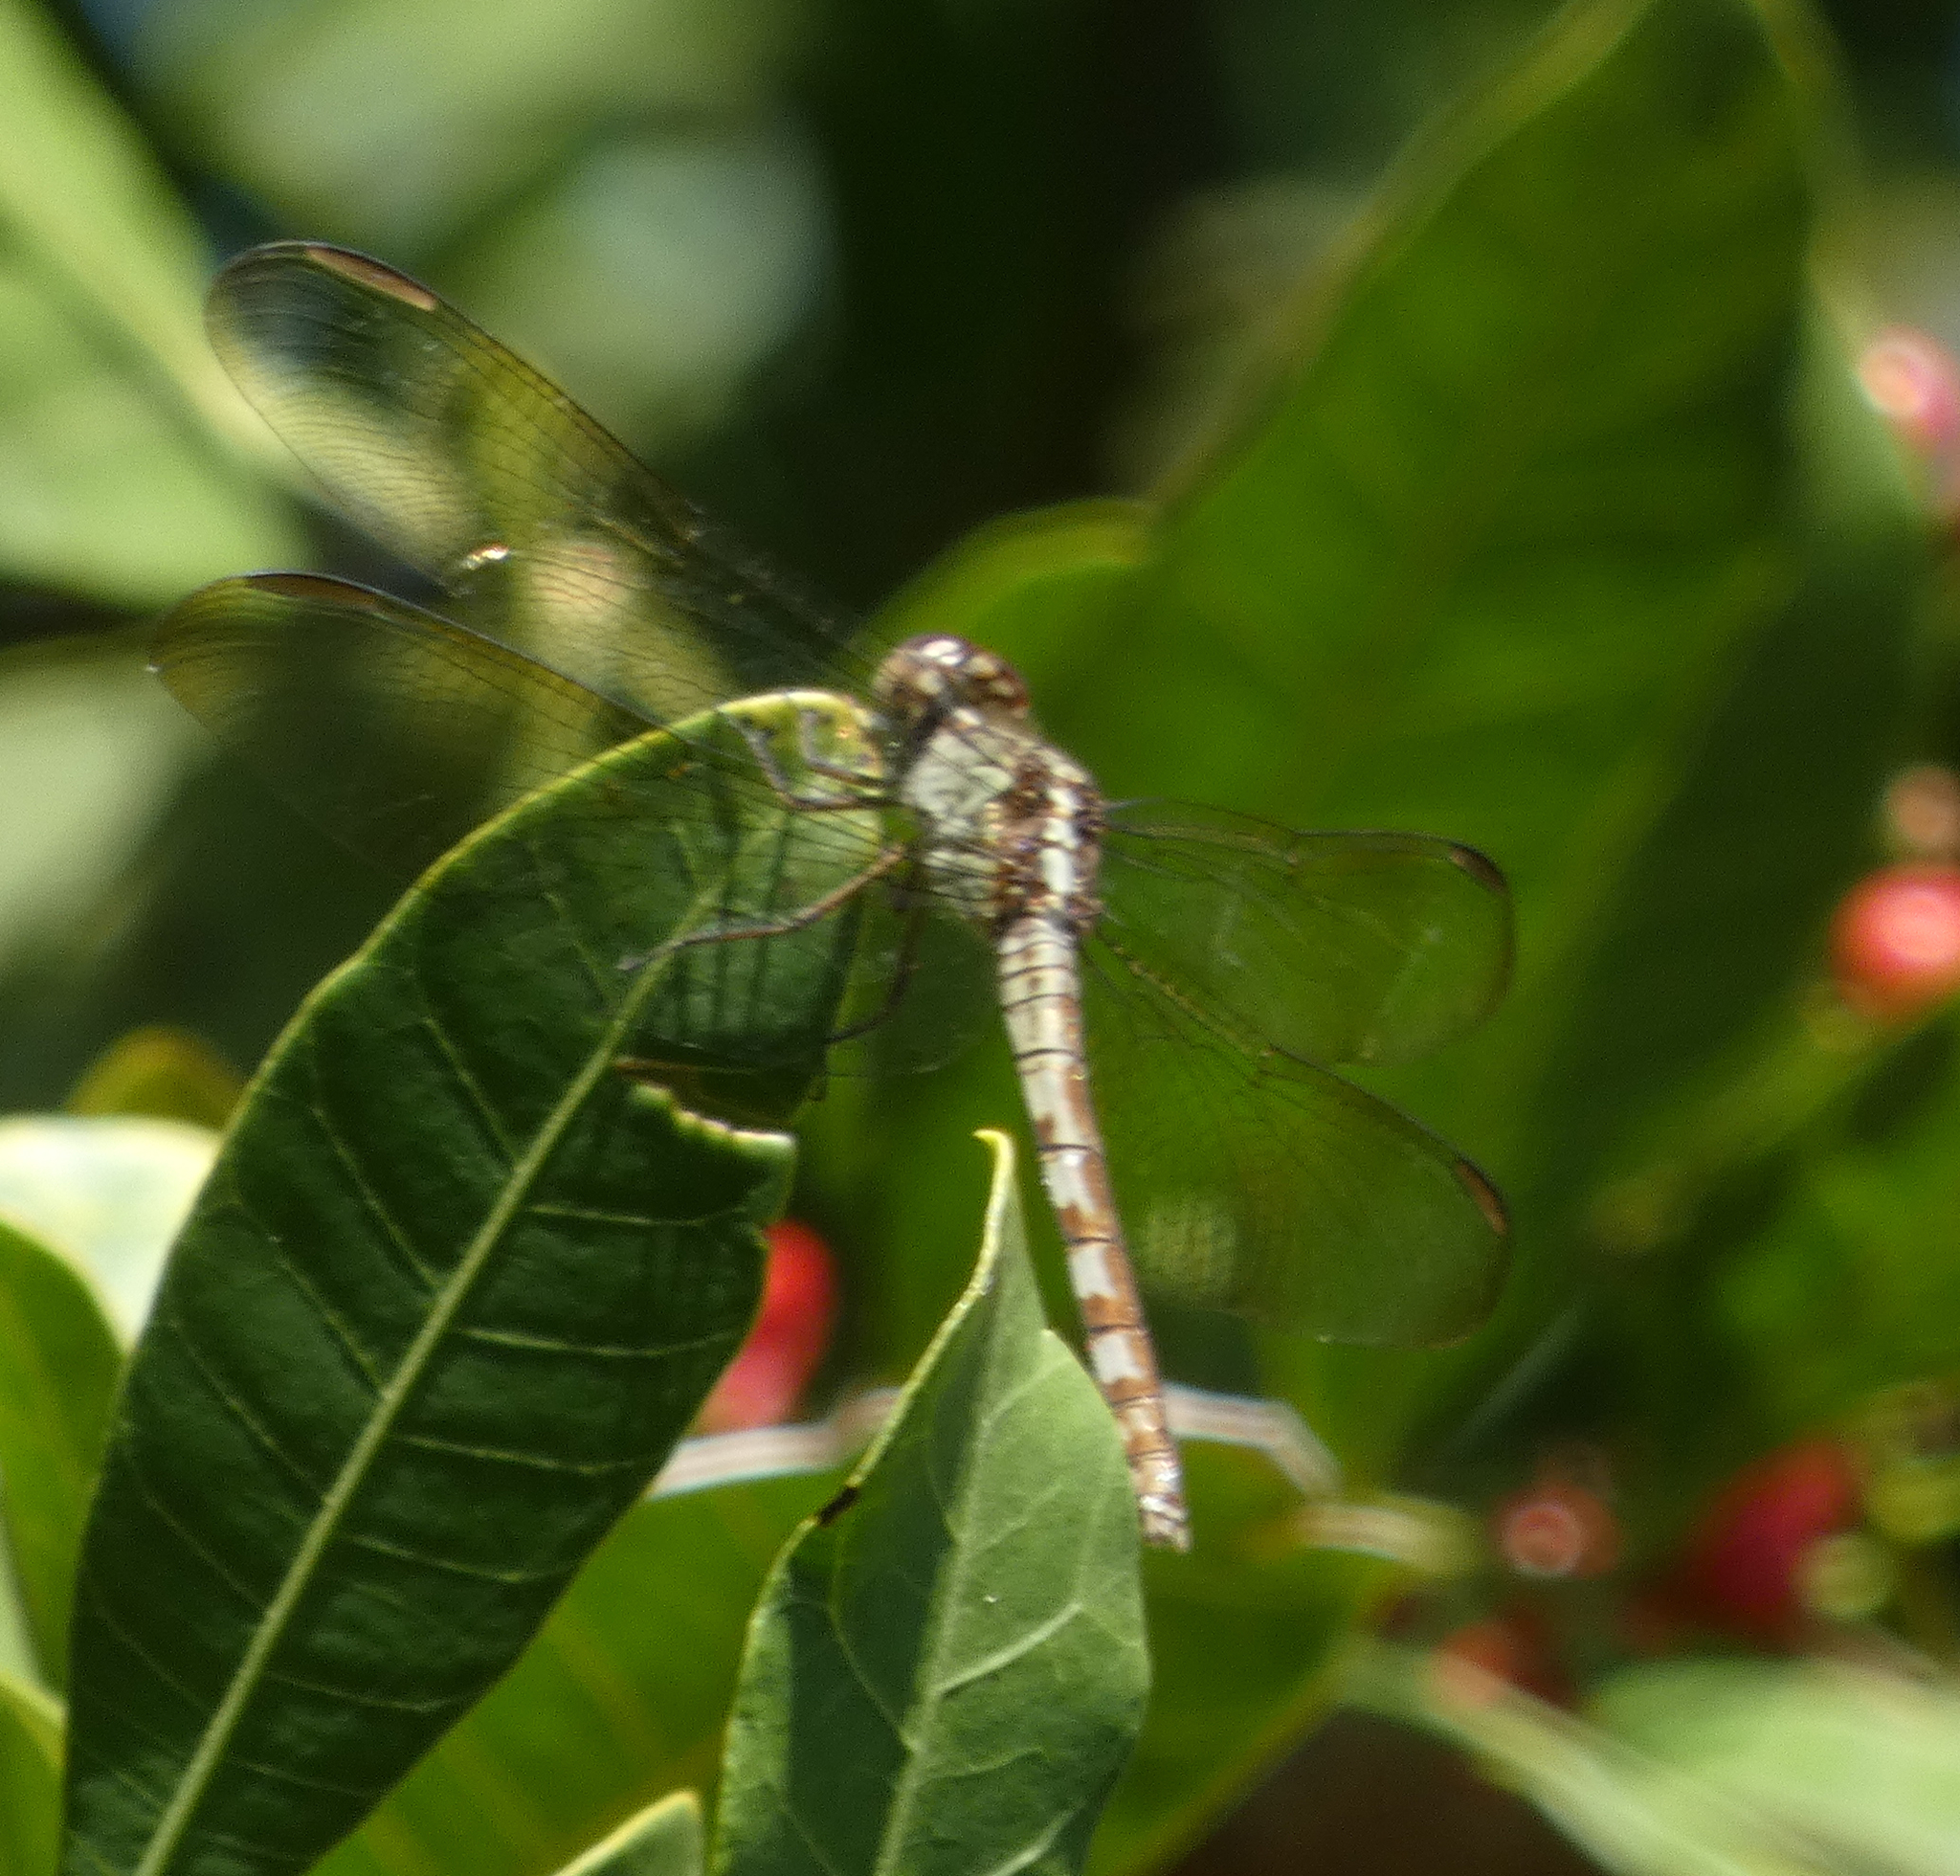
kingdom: Animalia
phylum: Arthropoda
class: Insecta
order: Odonata
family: Libellulidae
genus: Erythrodiplax
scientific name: Erythrodiplax umbrata
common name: Band-winged dragonlet
